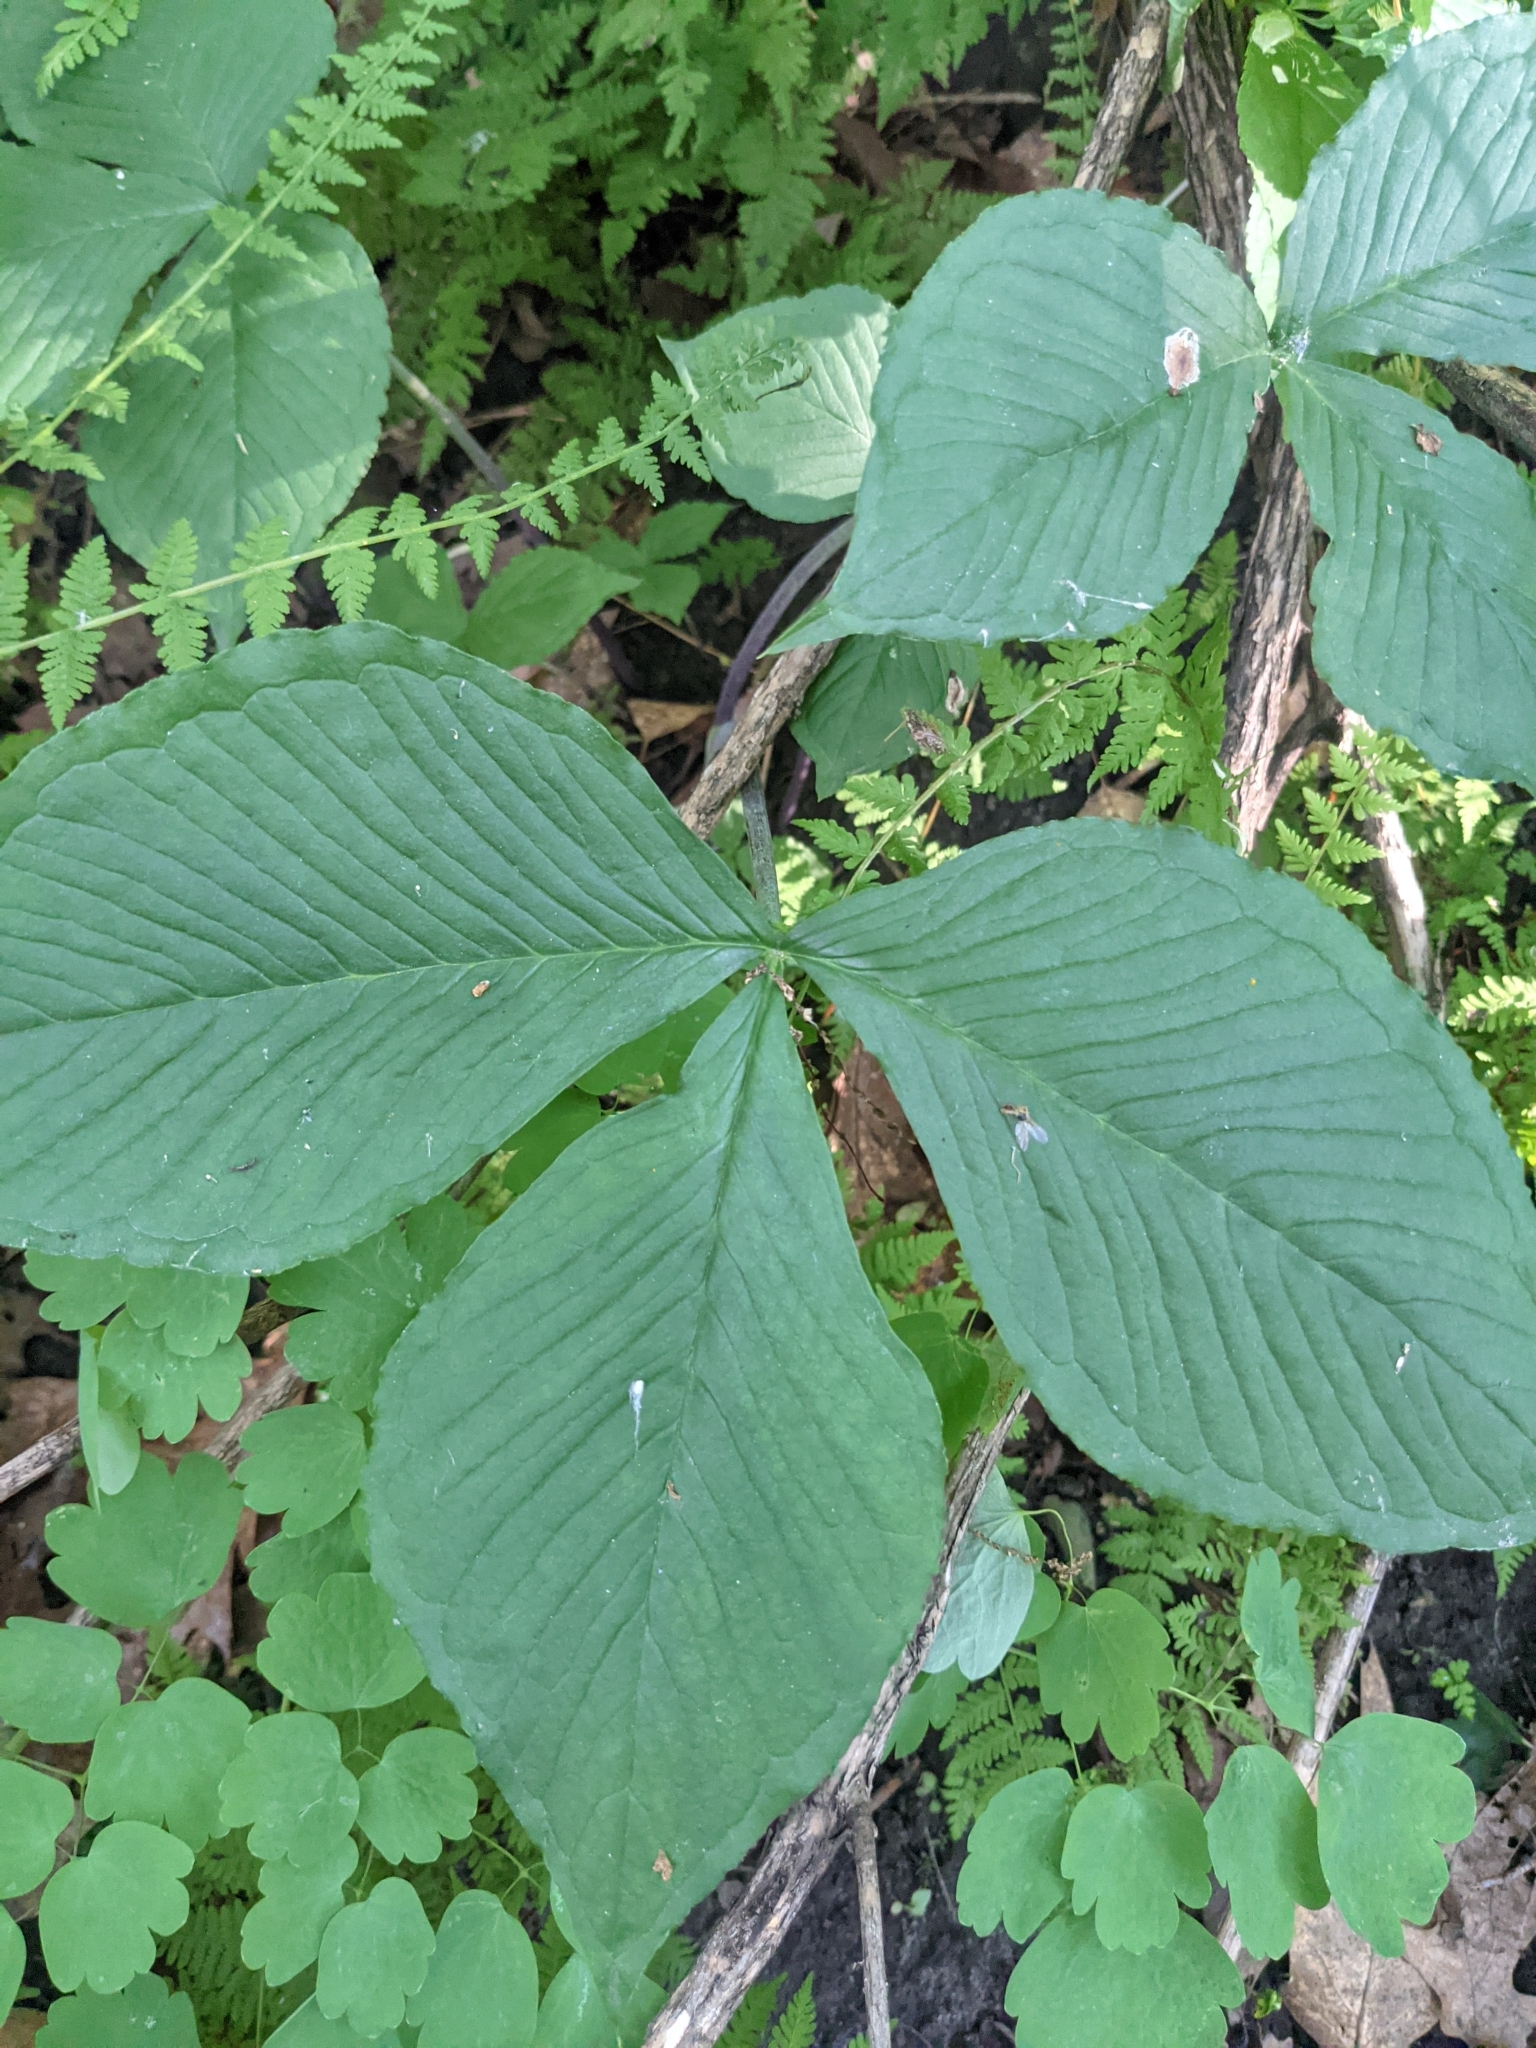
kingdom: Plantae
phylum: Tracheophyta
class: Liliopsida
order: Alismatales
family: Araceae
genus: Arisaema
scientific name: Arisaema triphyllum
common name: Jack-in-the-pulpit
